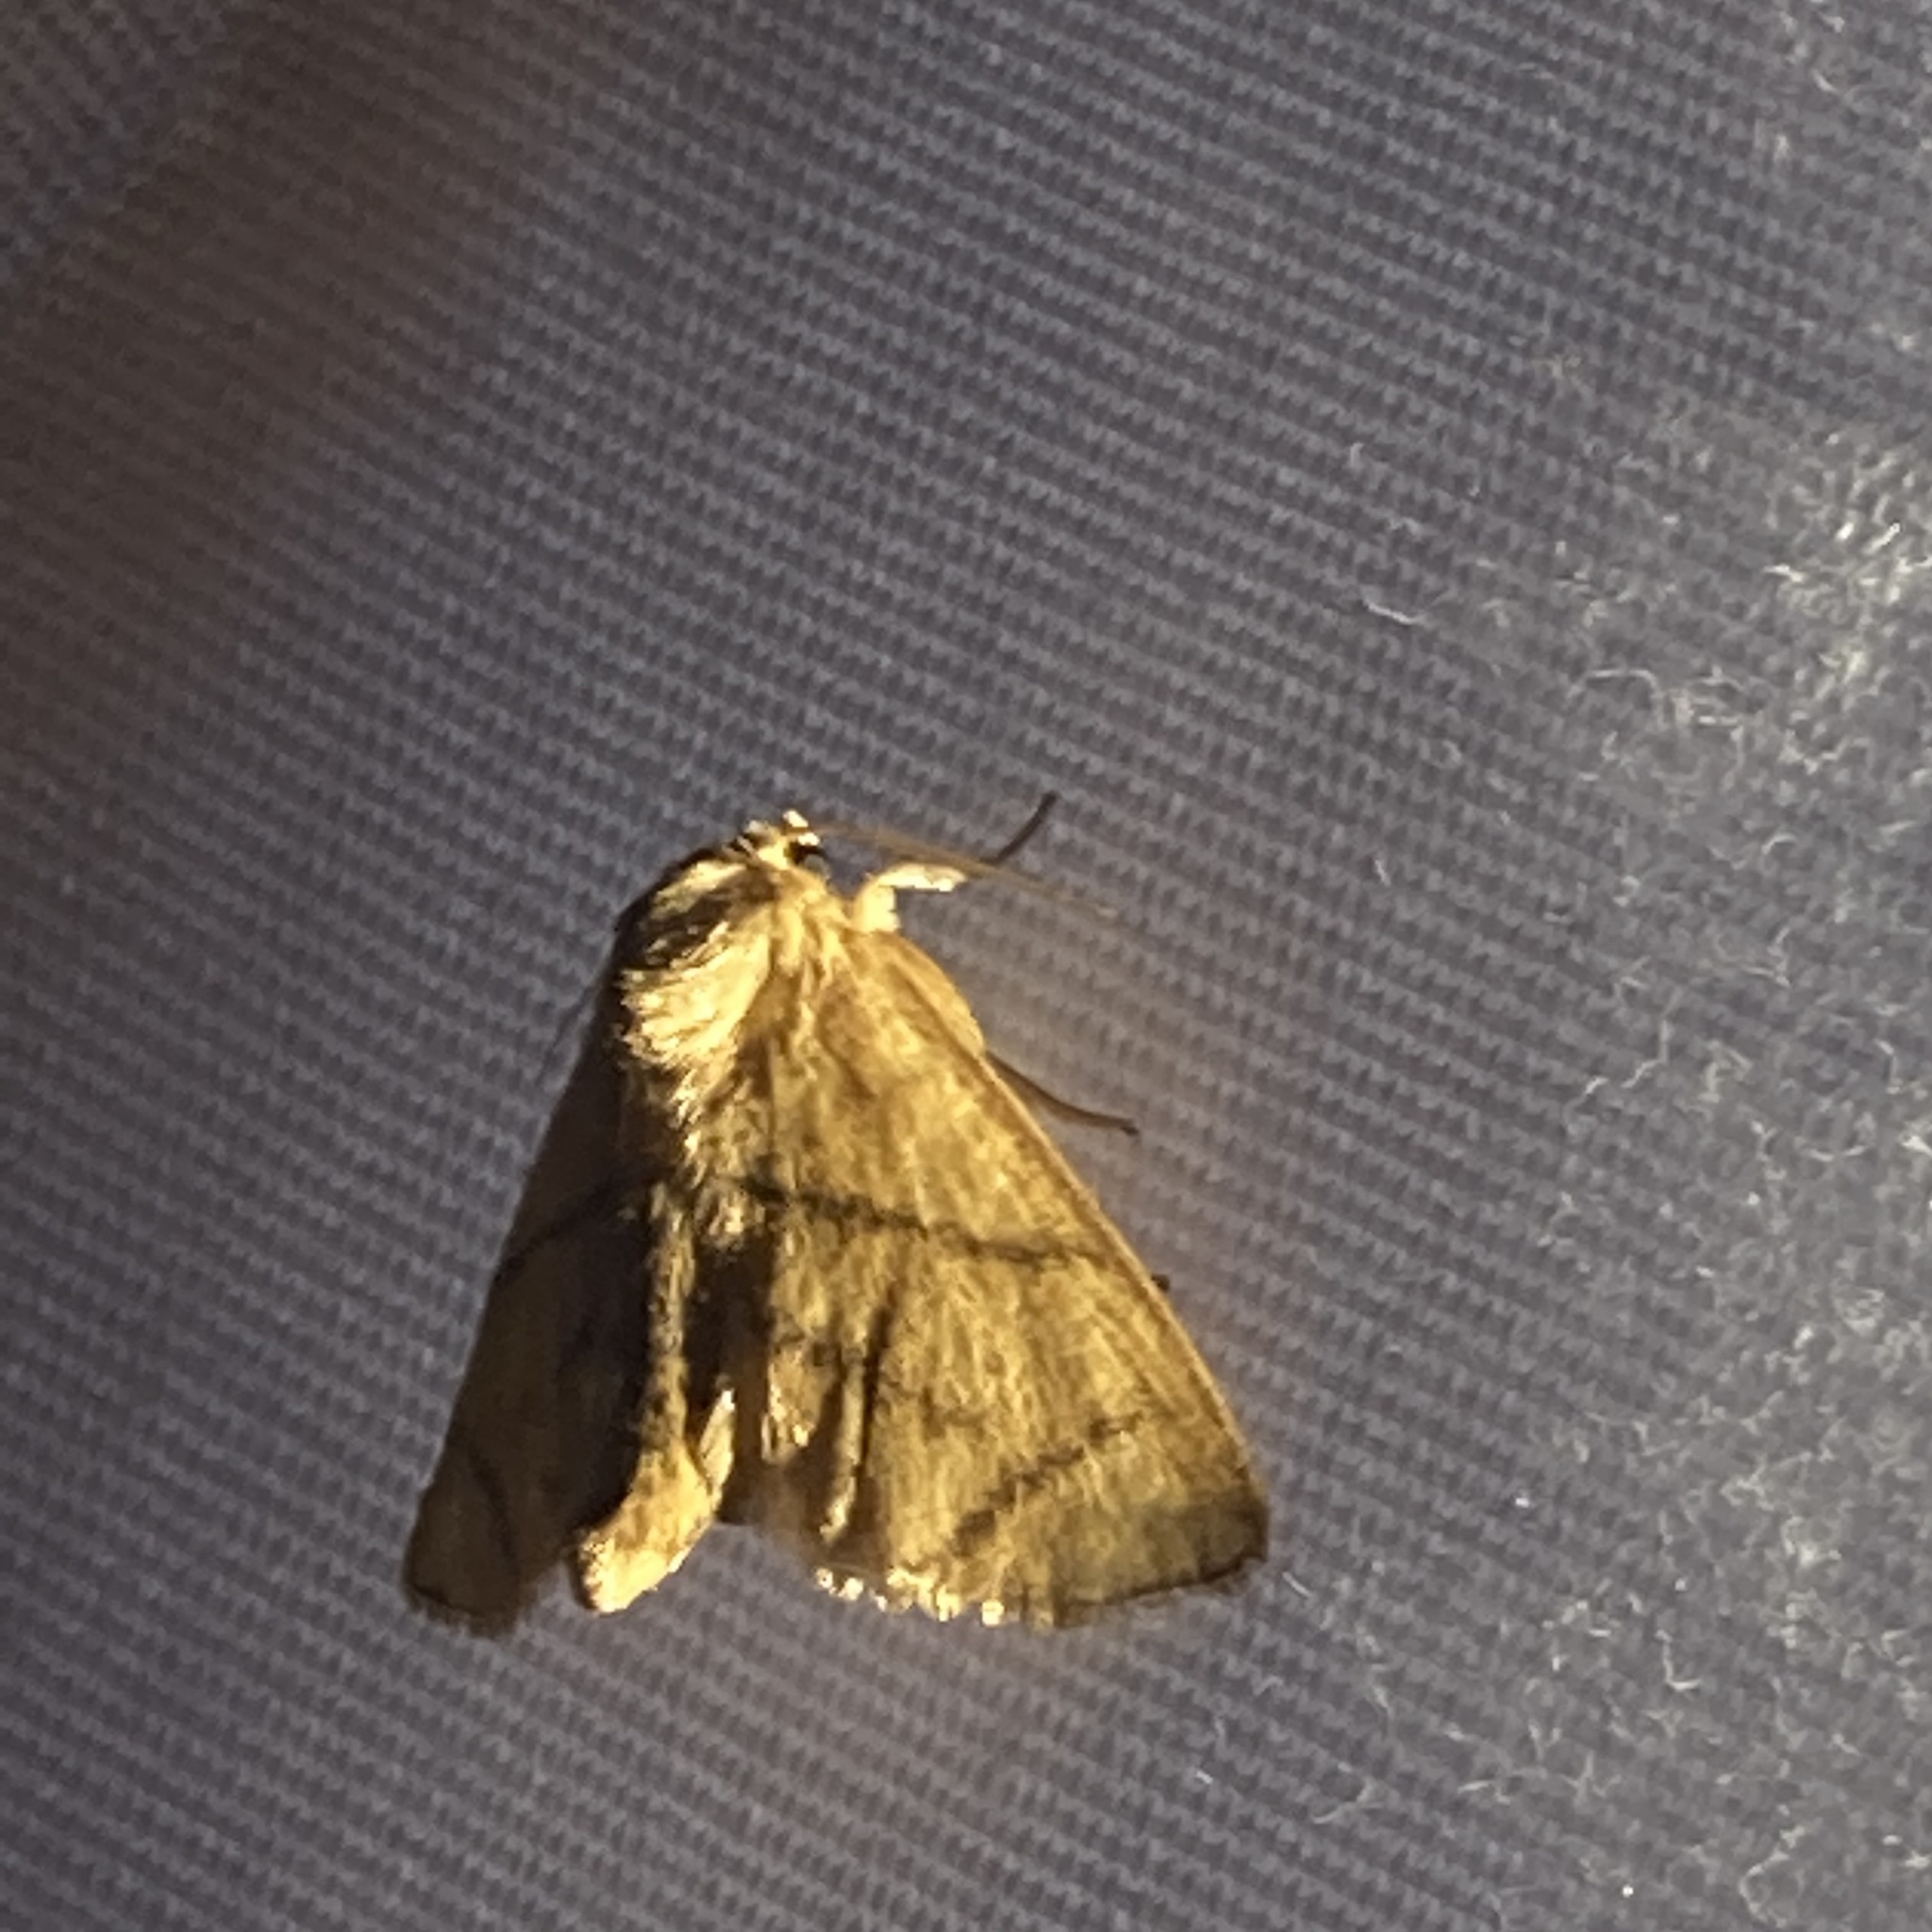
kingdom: Animalia
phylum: Arthropoda
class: Insecta
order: Lepidoptera
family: Limacodidae
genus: Apoda
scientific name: Apoda y-inversa
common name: Yellow-collared slug moth
